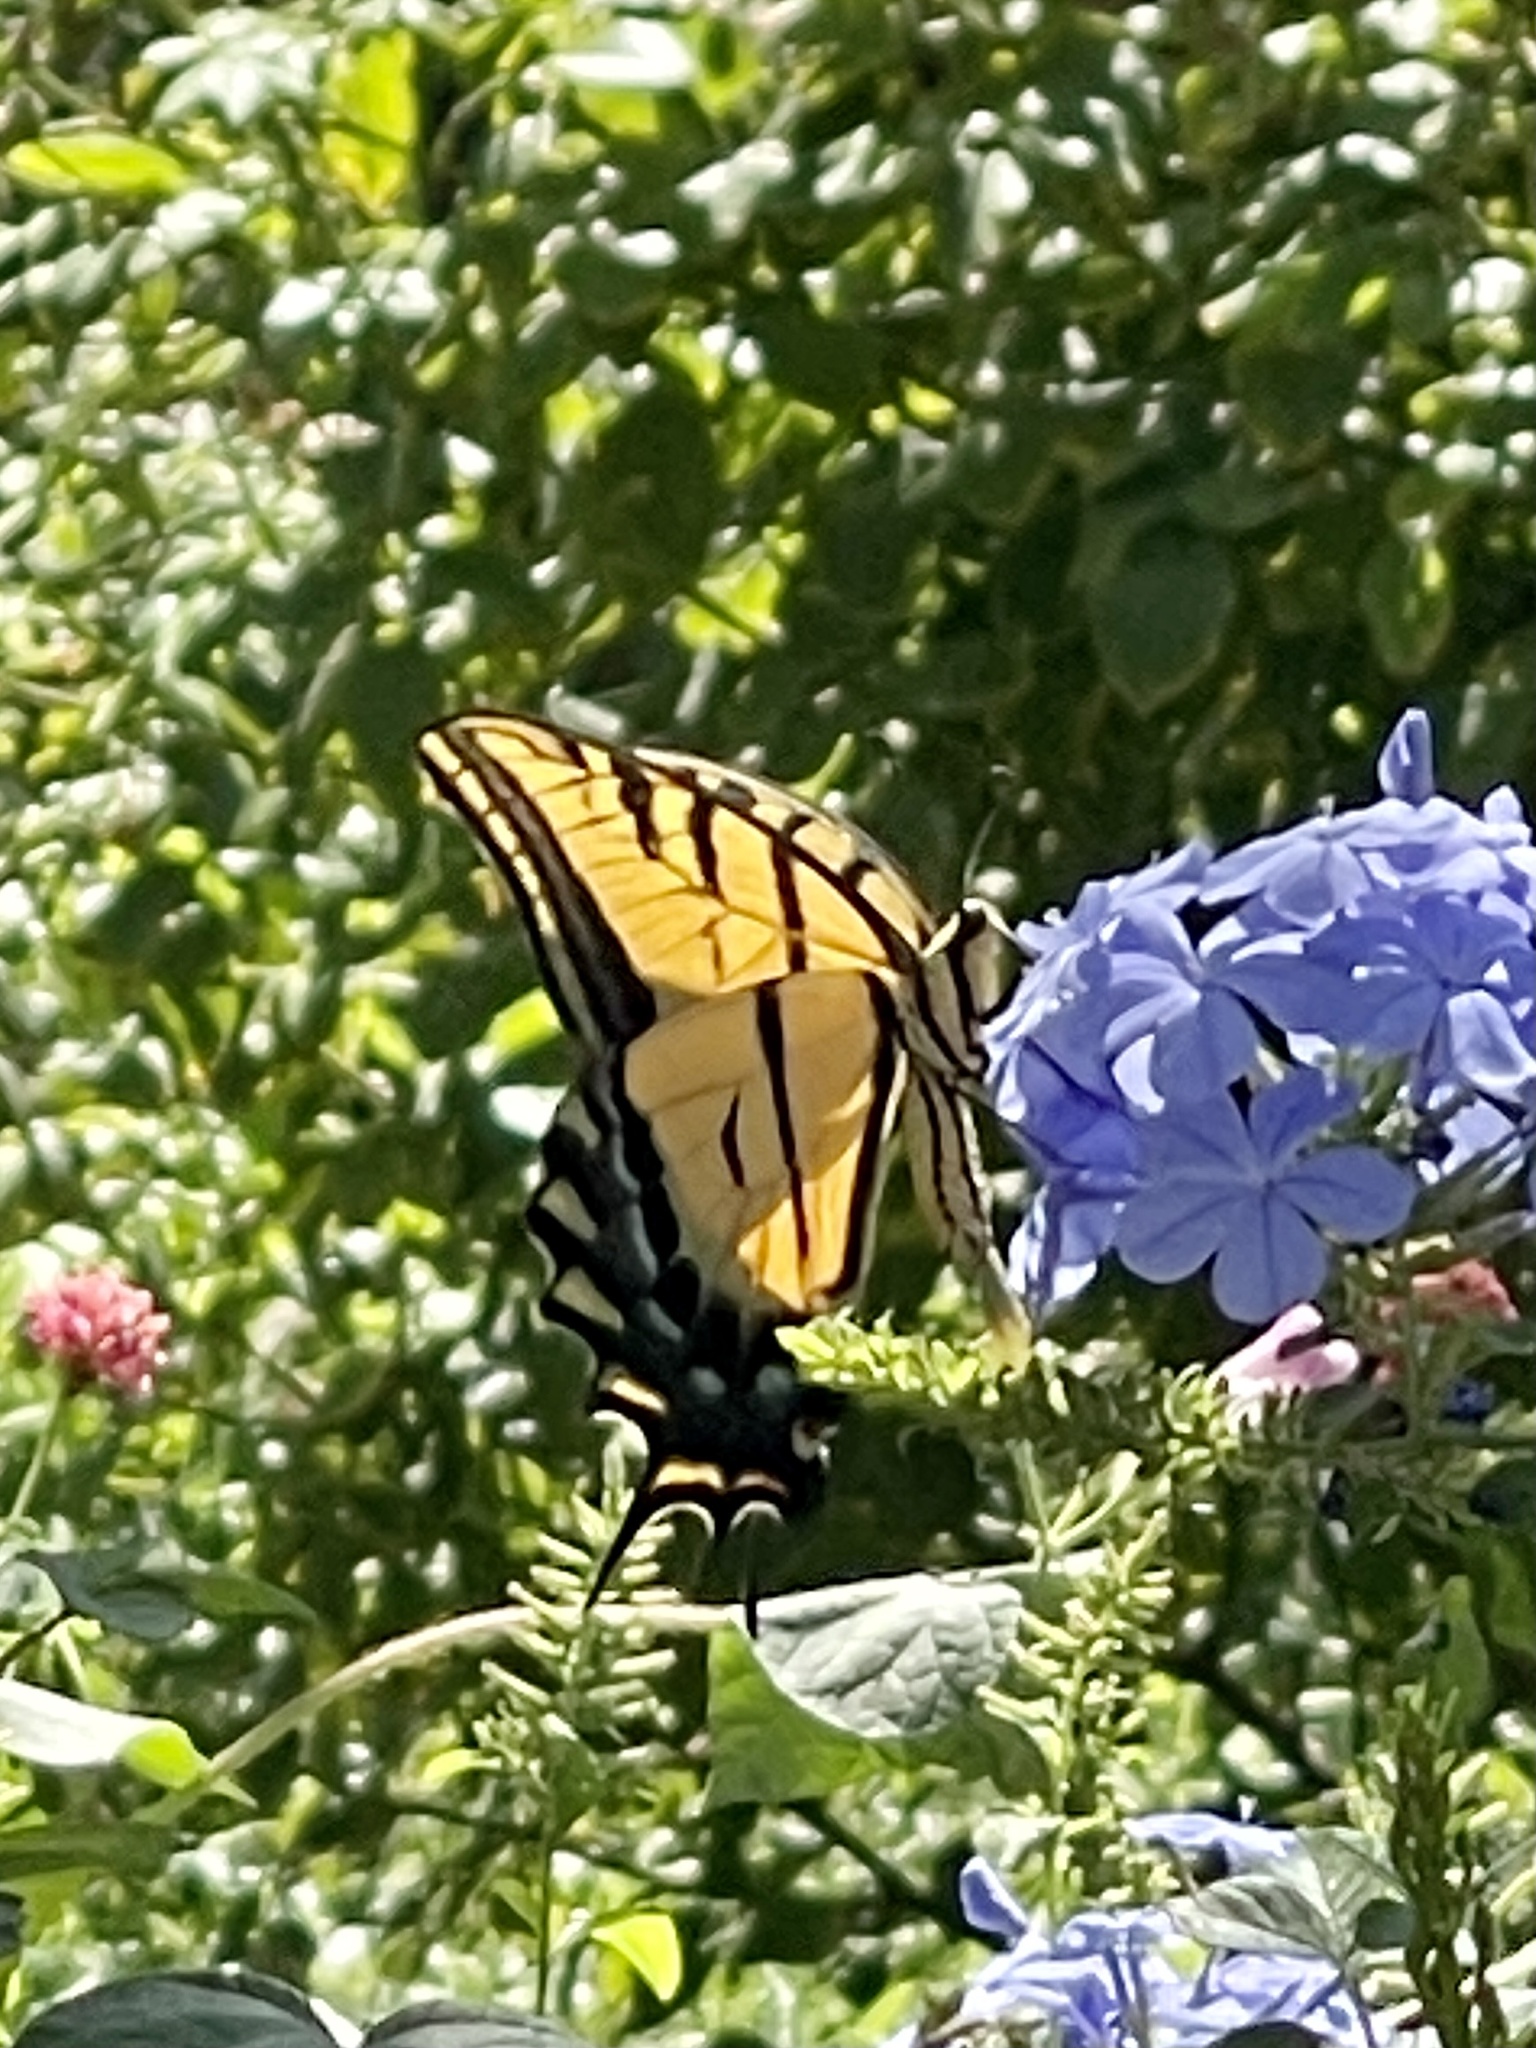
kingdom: Animalia
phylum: Arthropoda
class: Insecta
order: Lepidoptera
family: Papilionidae
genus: Papilio
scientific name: Papilio multicaudata
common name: Two-tailed tiger swallowtail
